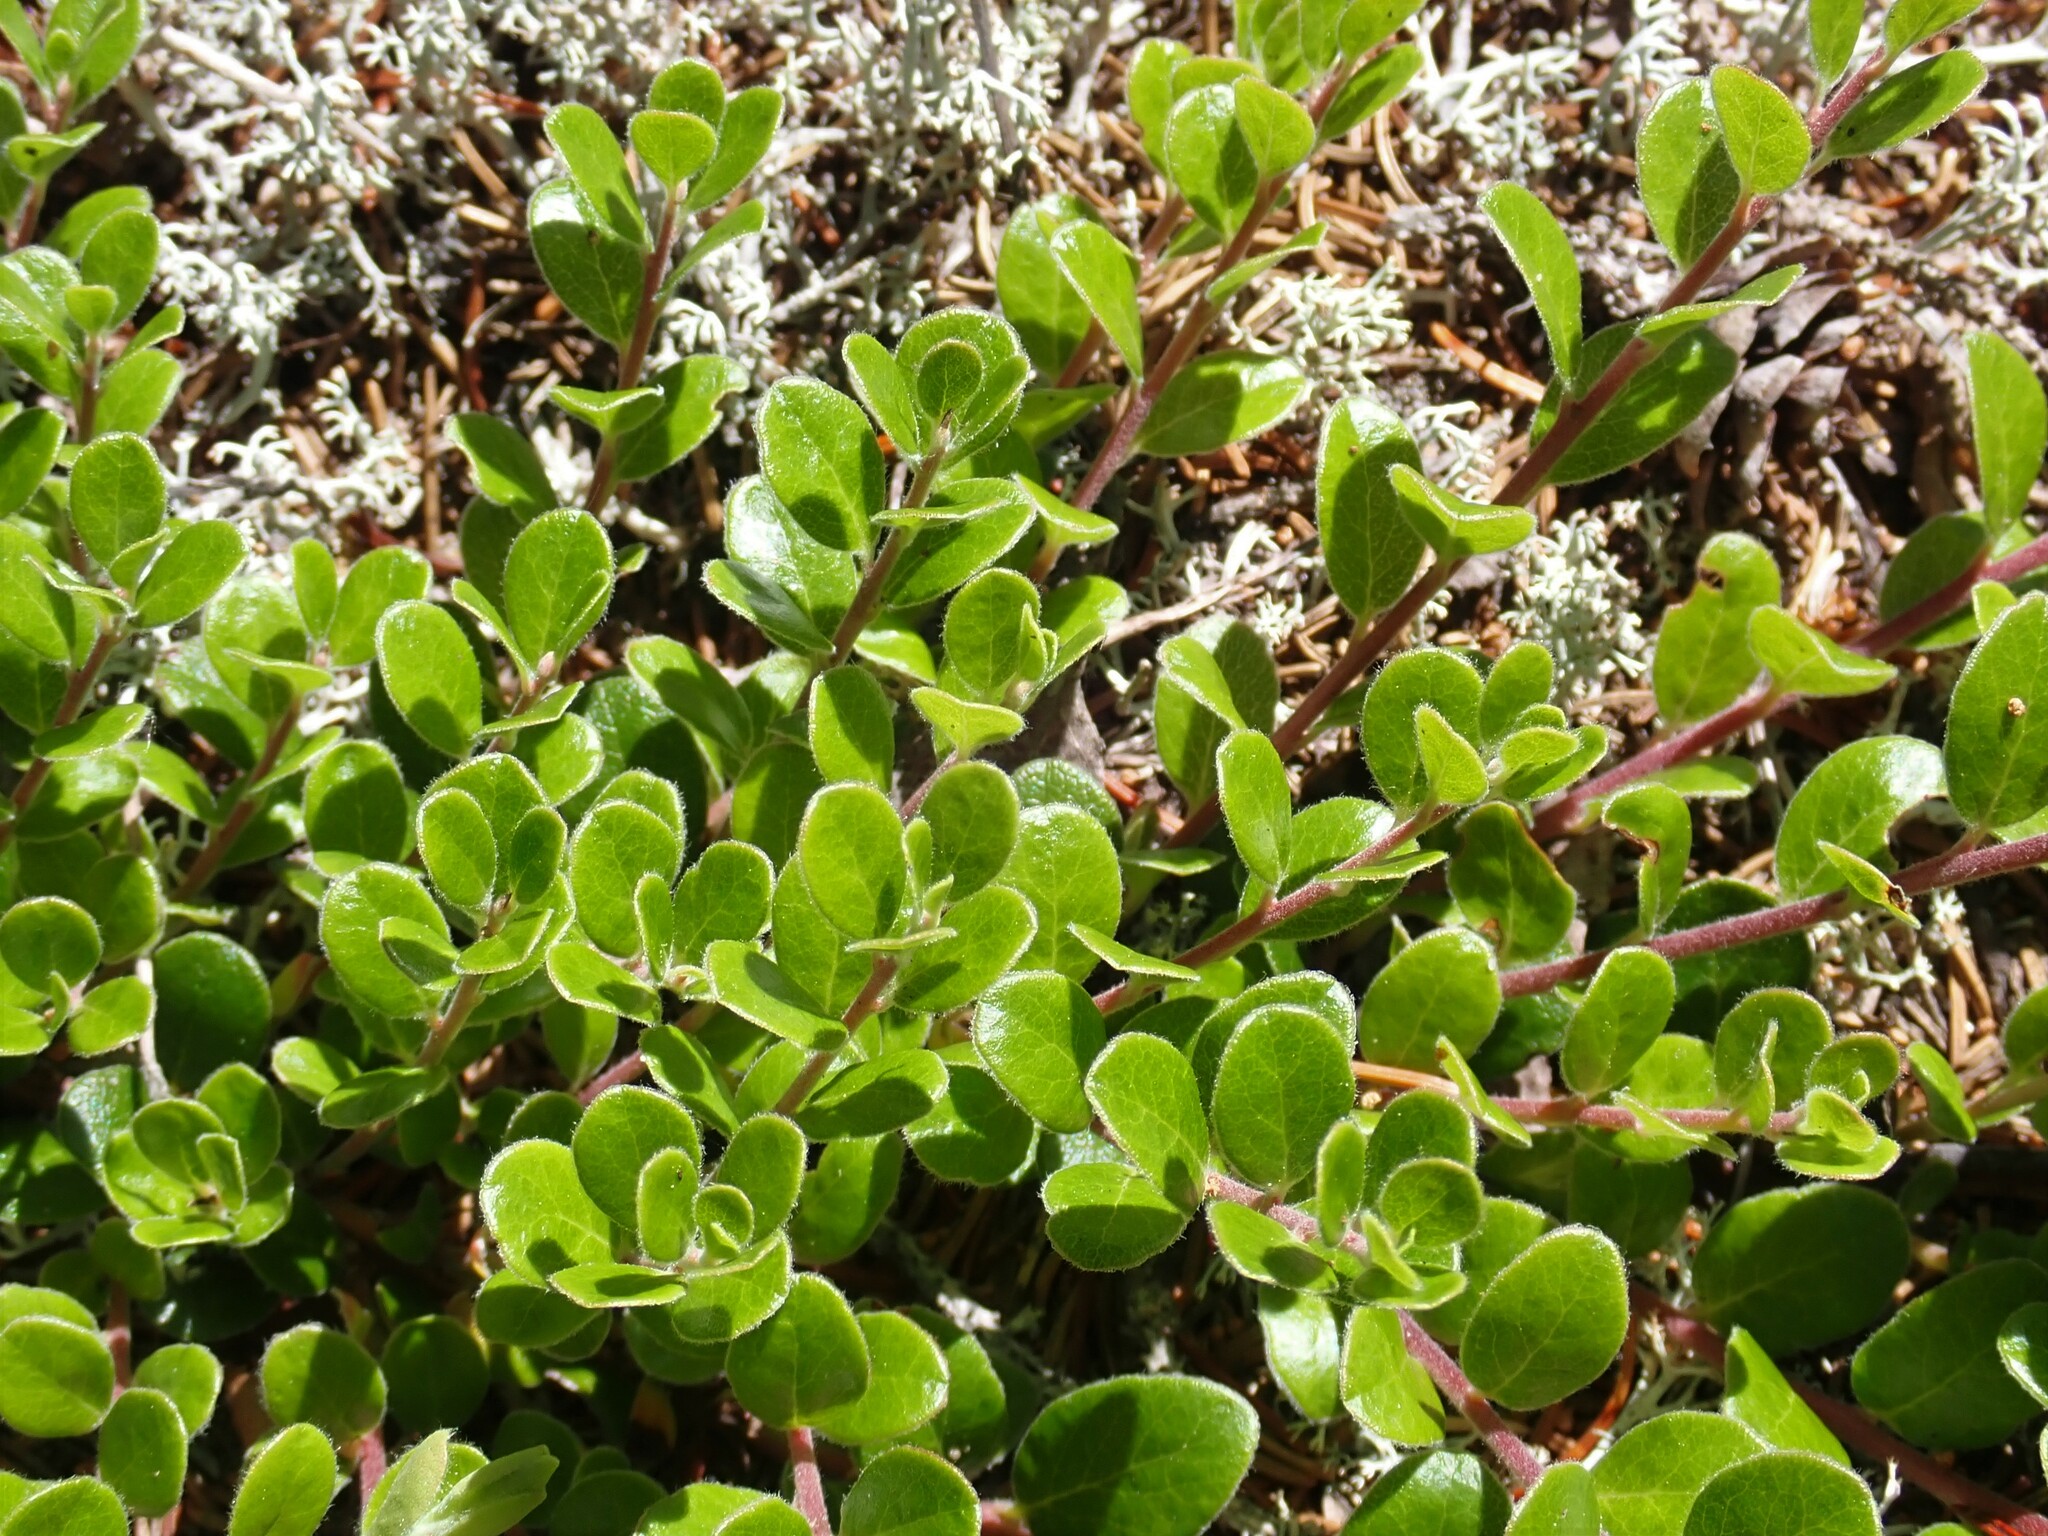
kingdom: Plantae
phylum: Tracheophyta
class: Magnoliopsida
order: Ericales
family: Ericaceae
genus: Arctostaphylos
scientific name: Arctostaphylos uva-ursi
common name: Bearberry
